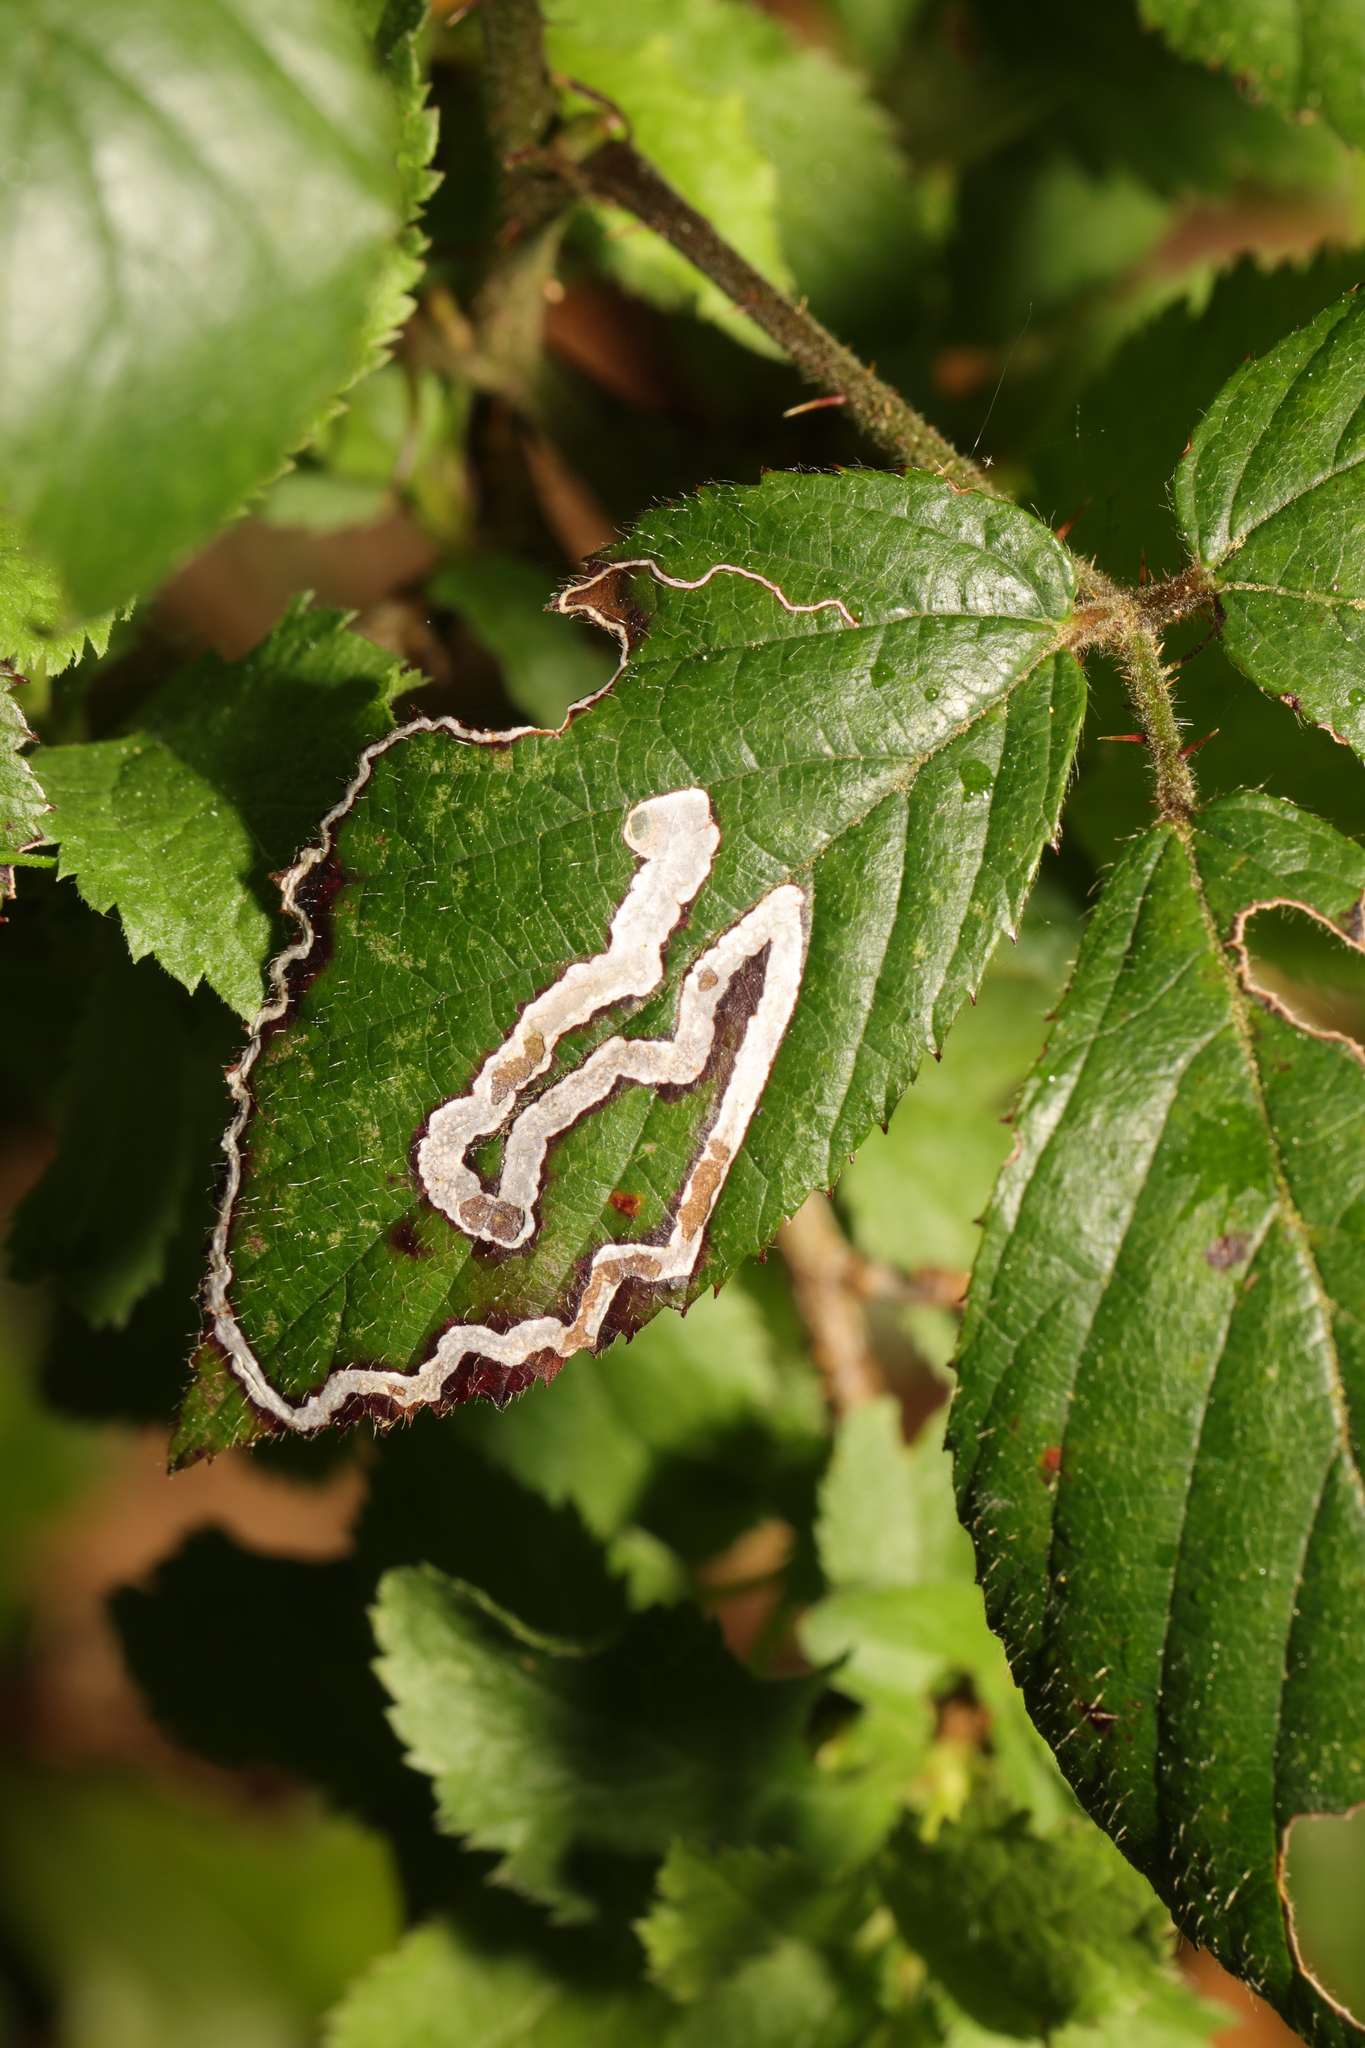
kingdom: Animalia
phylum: Arthropoda
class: Insecta
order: Lepidoptera
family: Nepticulidae
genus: Stigmella
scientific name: Stigmella aurella
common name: Golden pigmy
